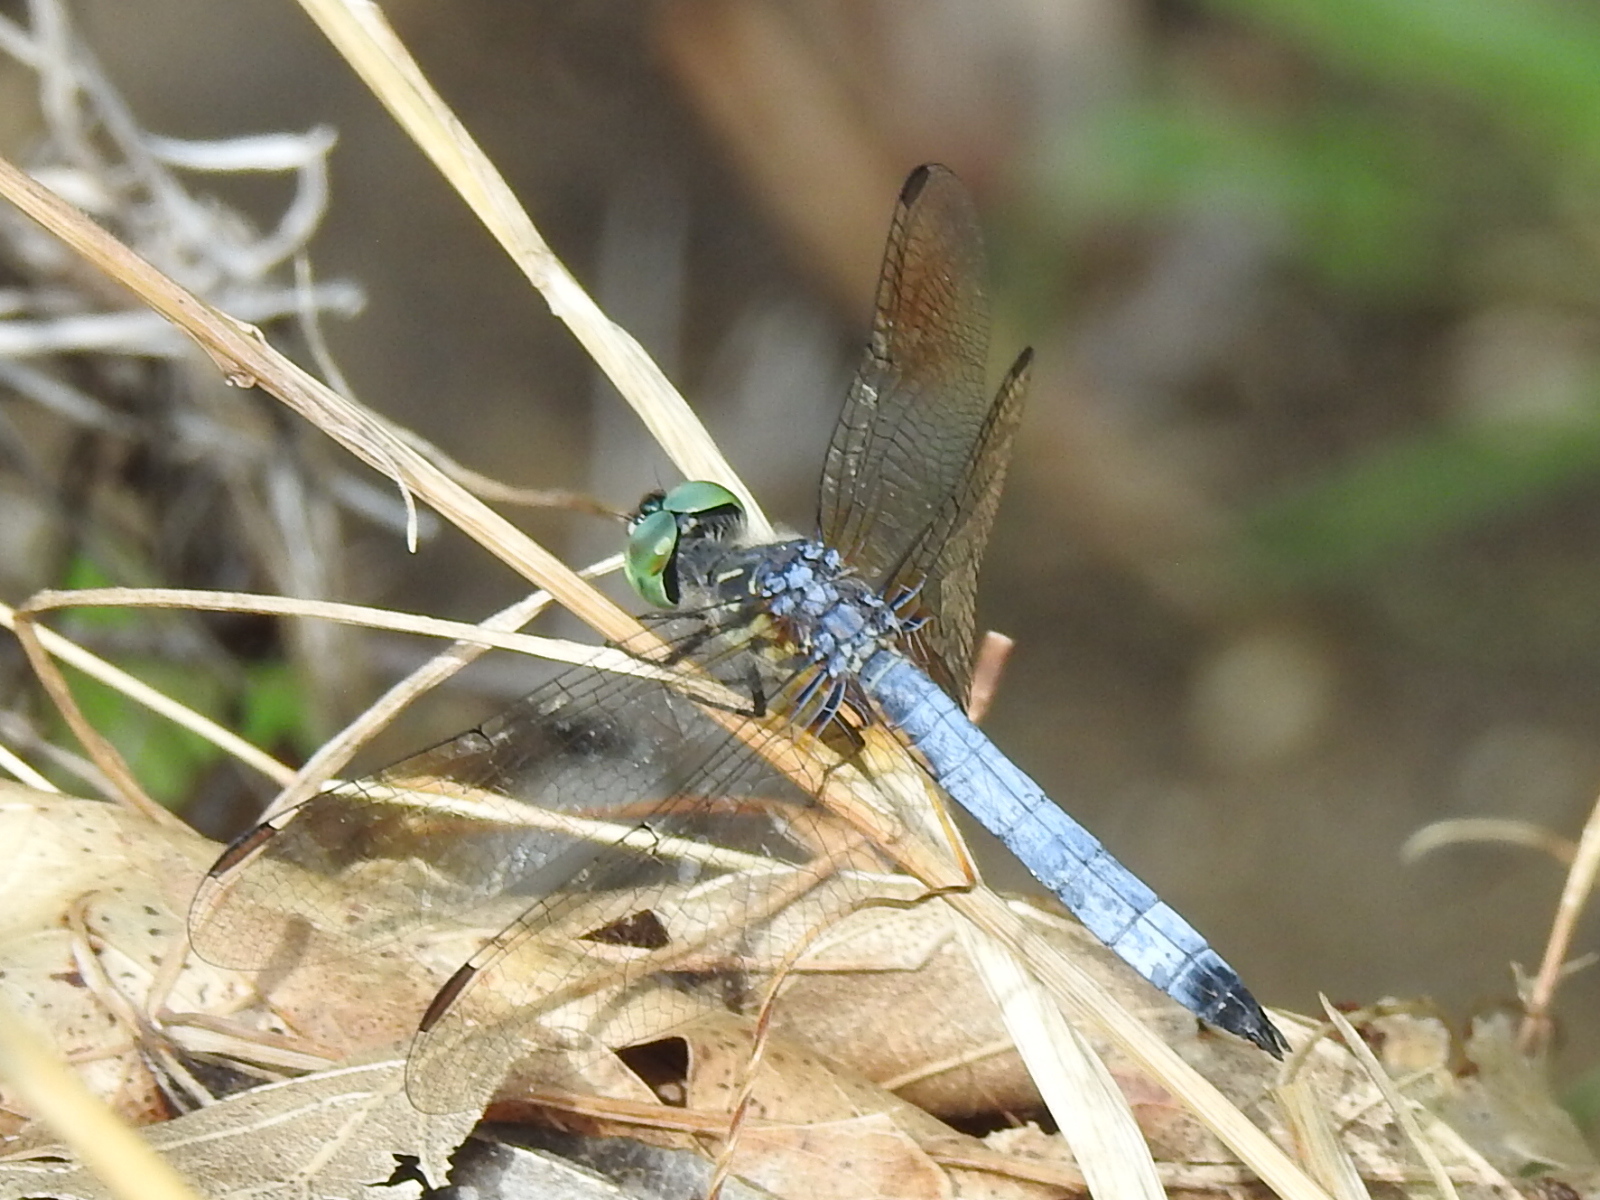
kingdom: Animalia
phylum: Arthropoda
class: Insecta
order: Odonata
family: Libellulidae
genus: Pachydiplax
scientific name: Pachydiplax longipennis
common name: Blue dasher
